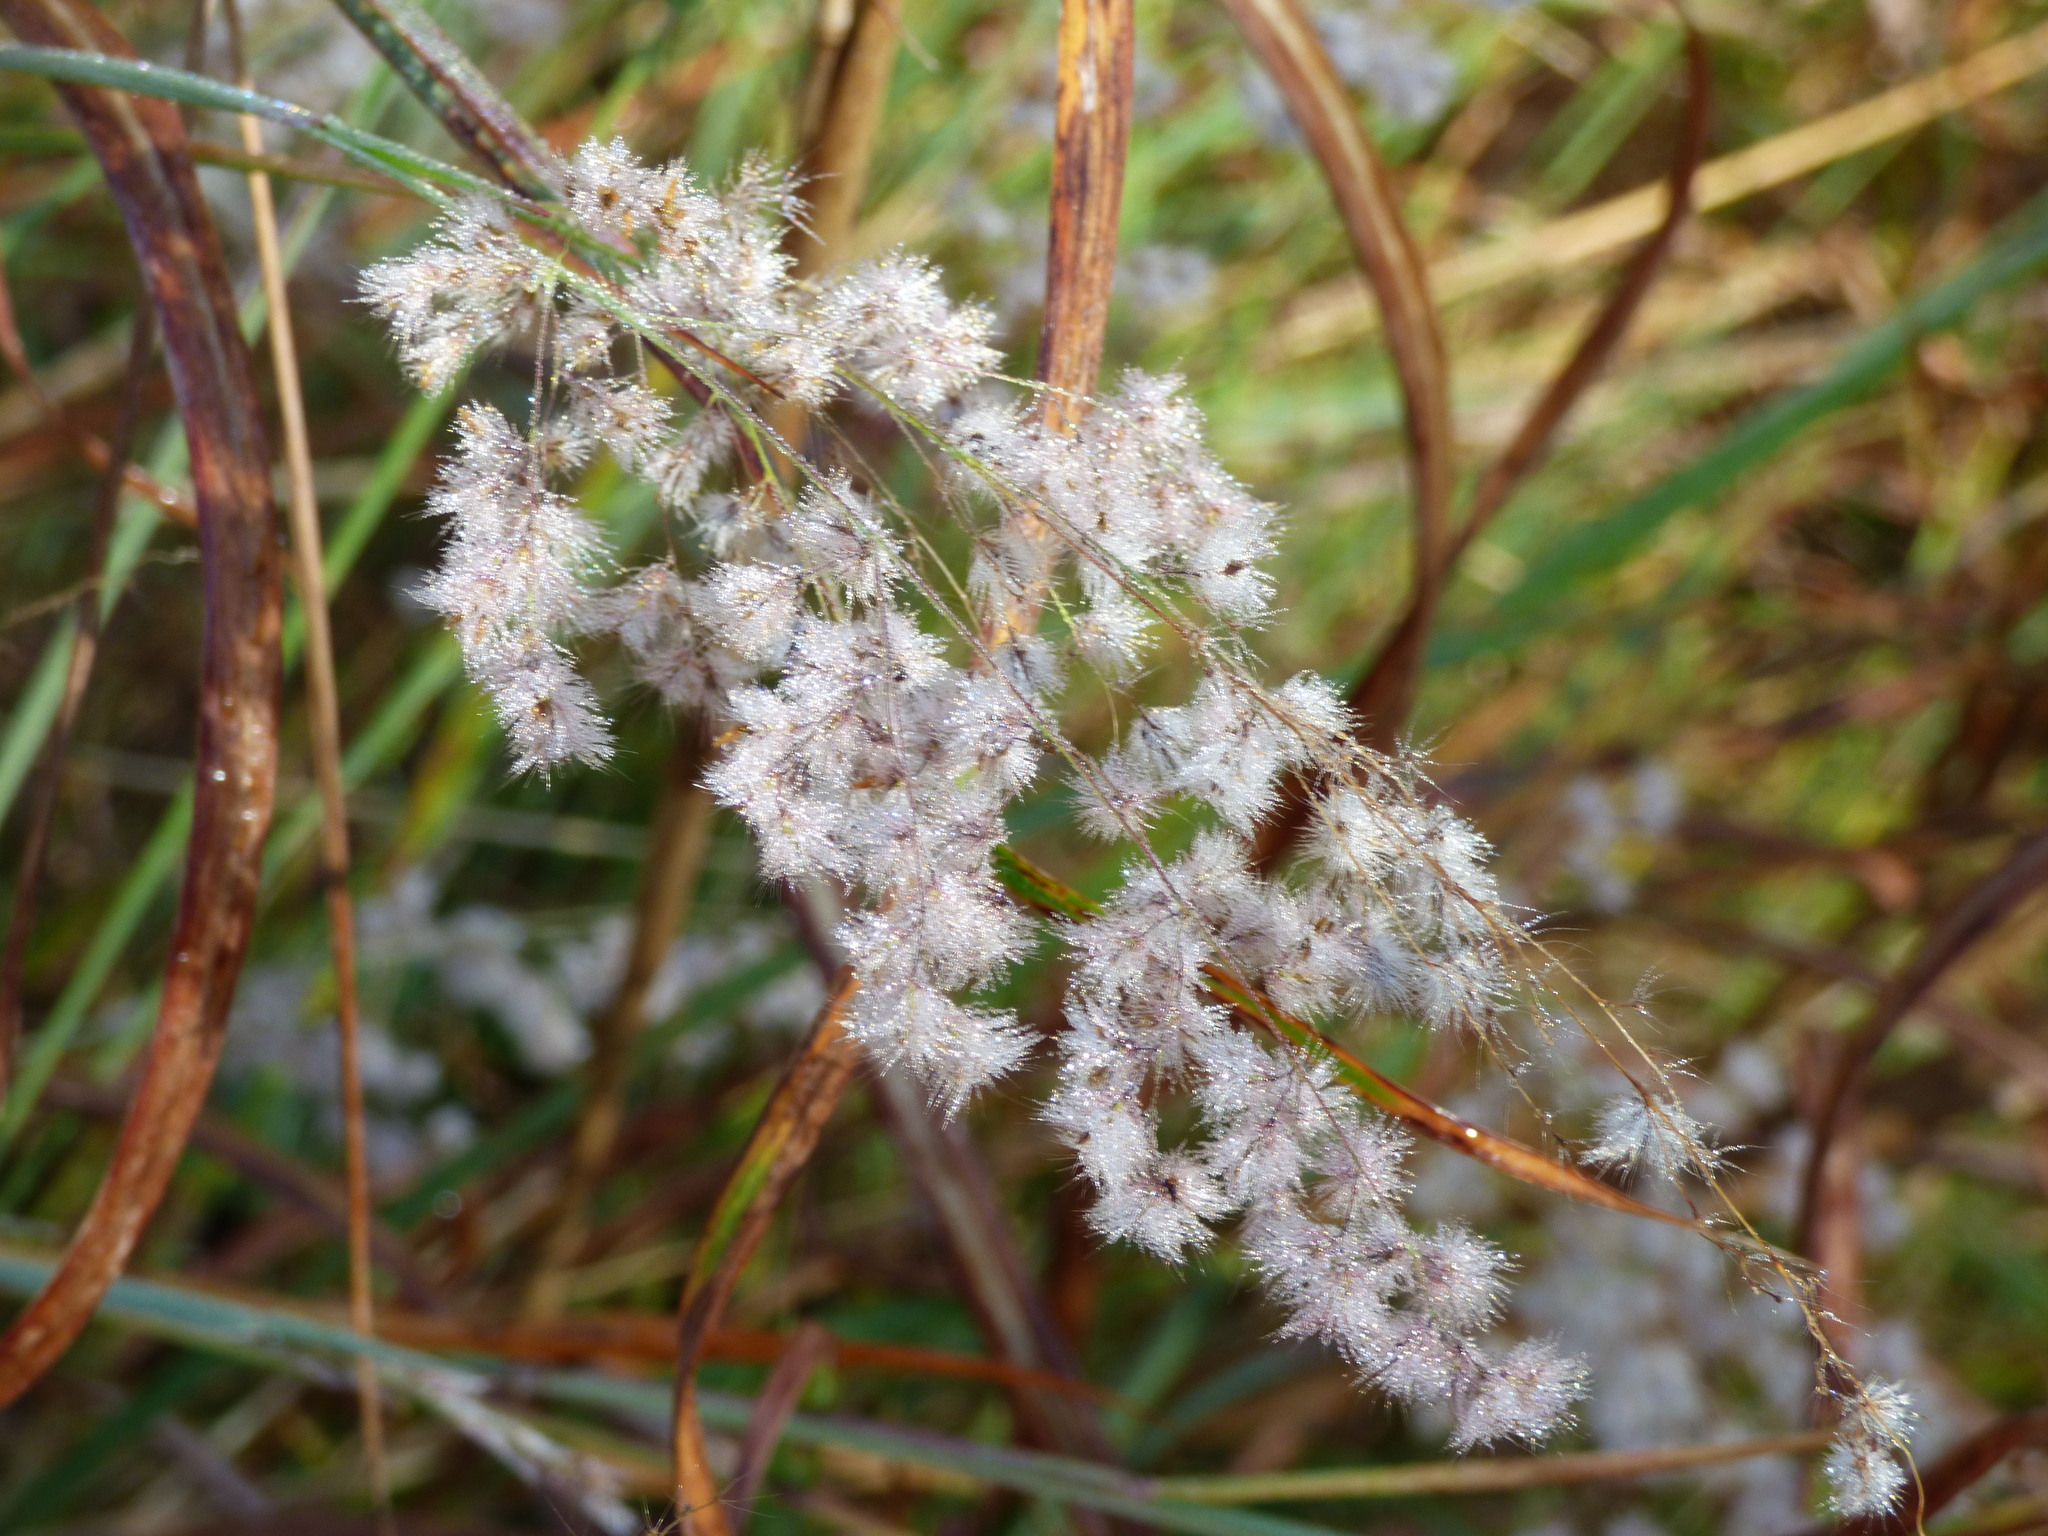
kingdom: Plantae
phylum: Tracheophyta
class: Liliopsida
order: Poales
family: Poaceae
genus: Melinis
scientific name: Melinis repens
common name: Rose natal grass
